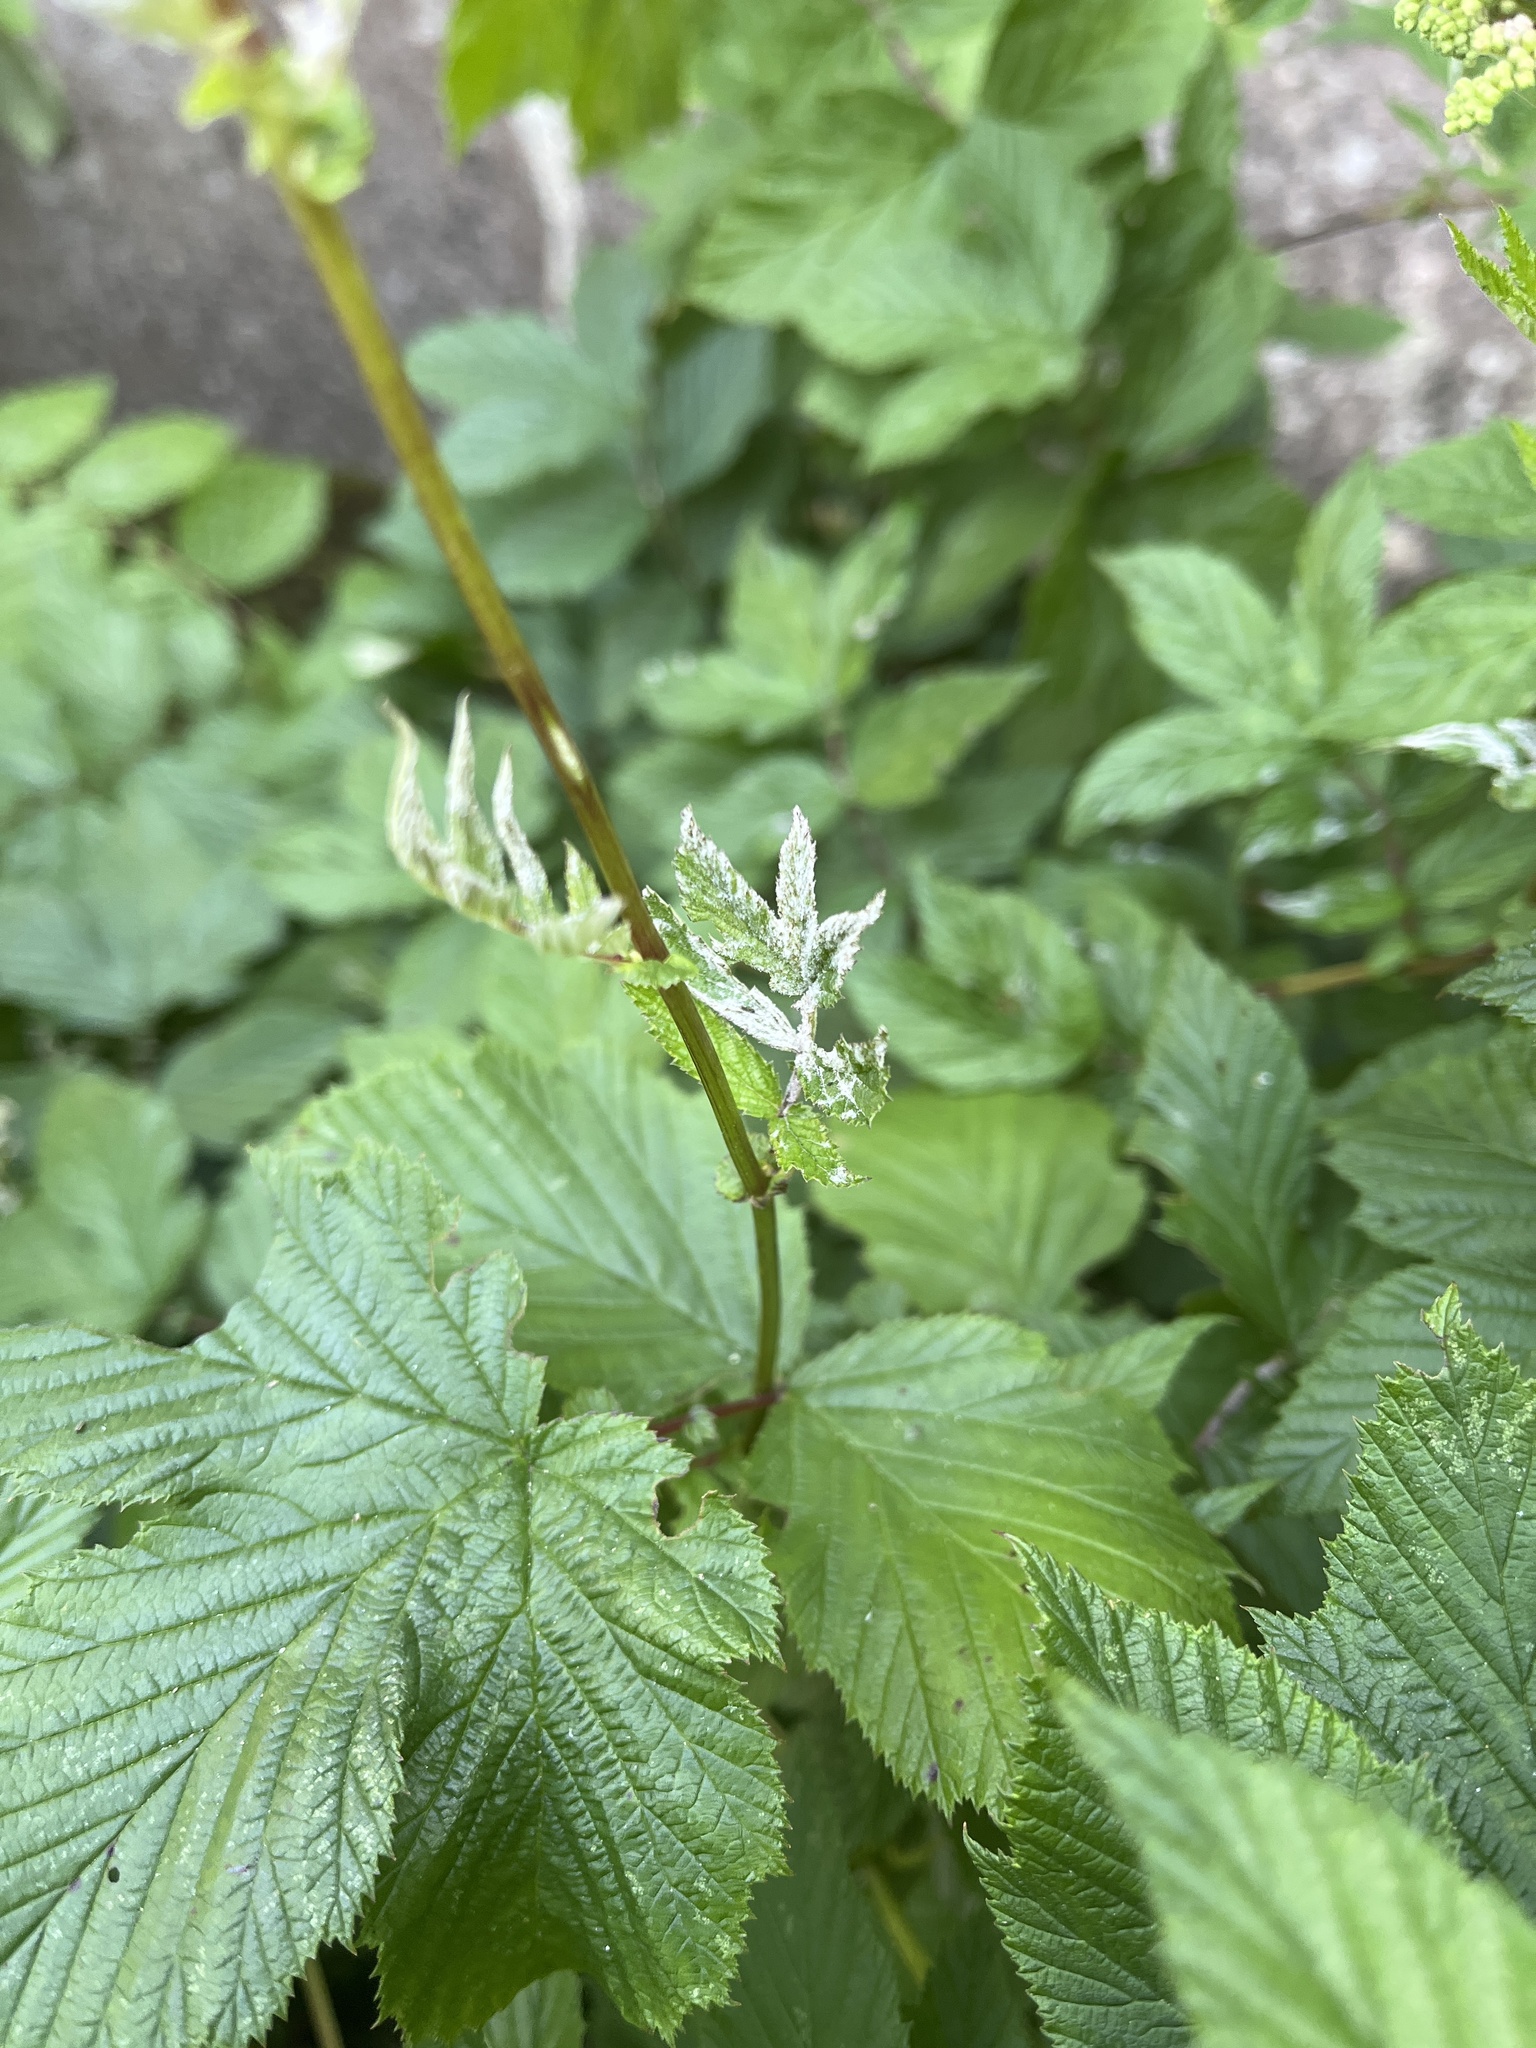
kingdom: Fungi
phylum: Ascomycota
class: Leotiomycetes
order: Helotiales
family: Erysiphaceae
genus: Podosphaera
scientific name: Podosphaera filipendulae
